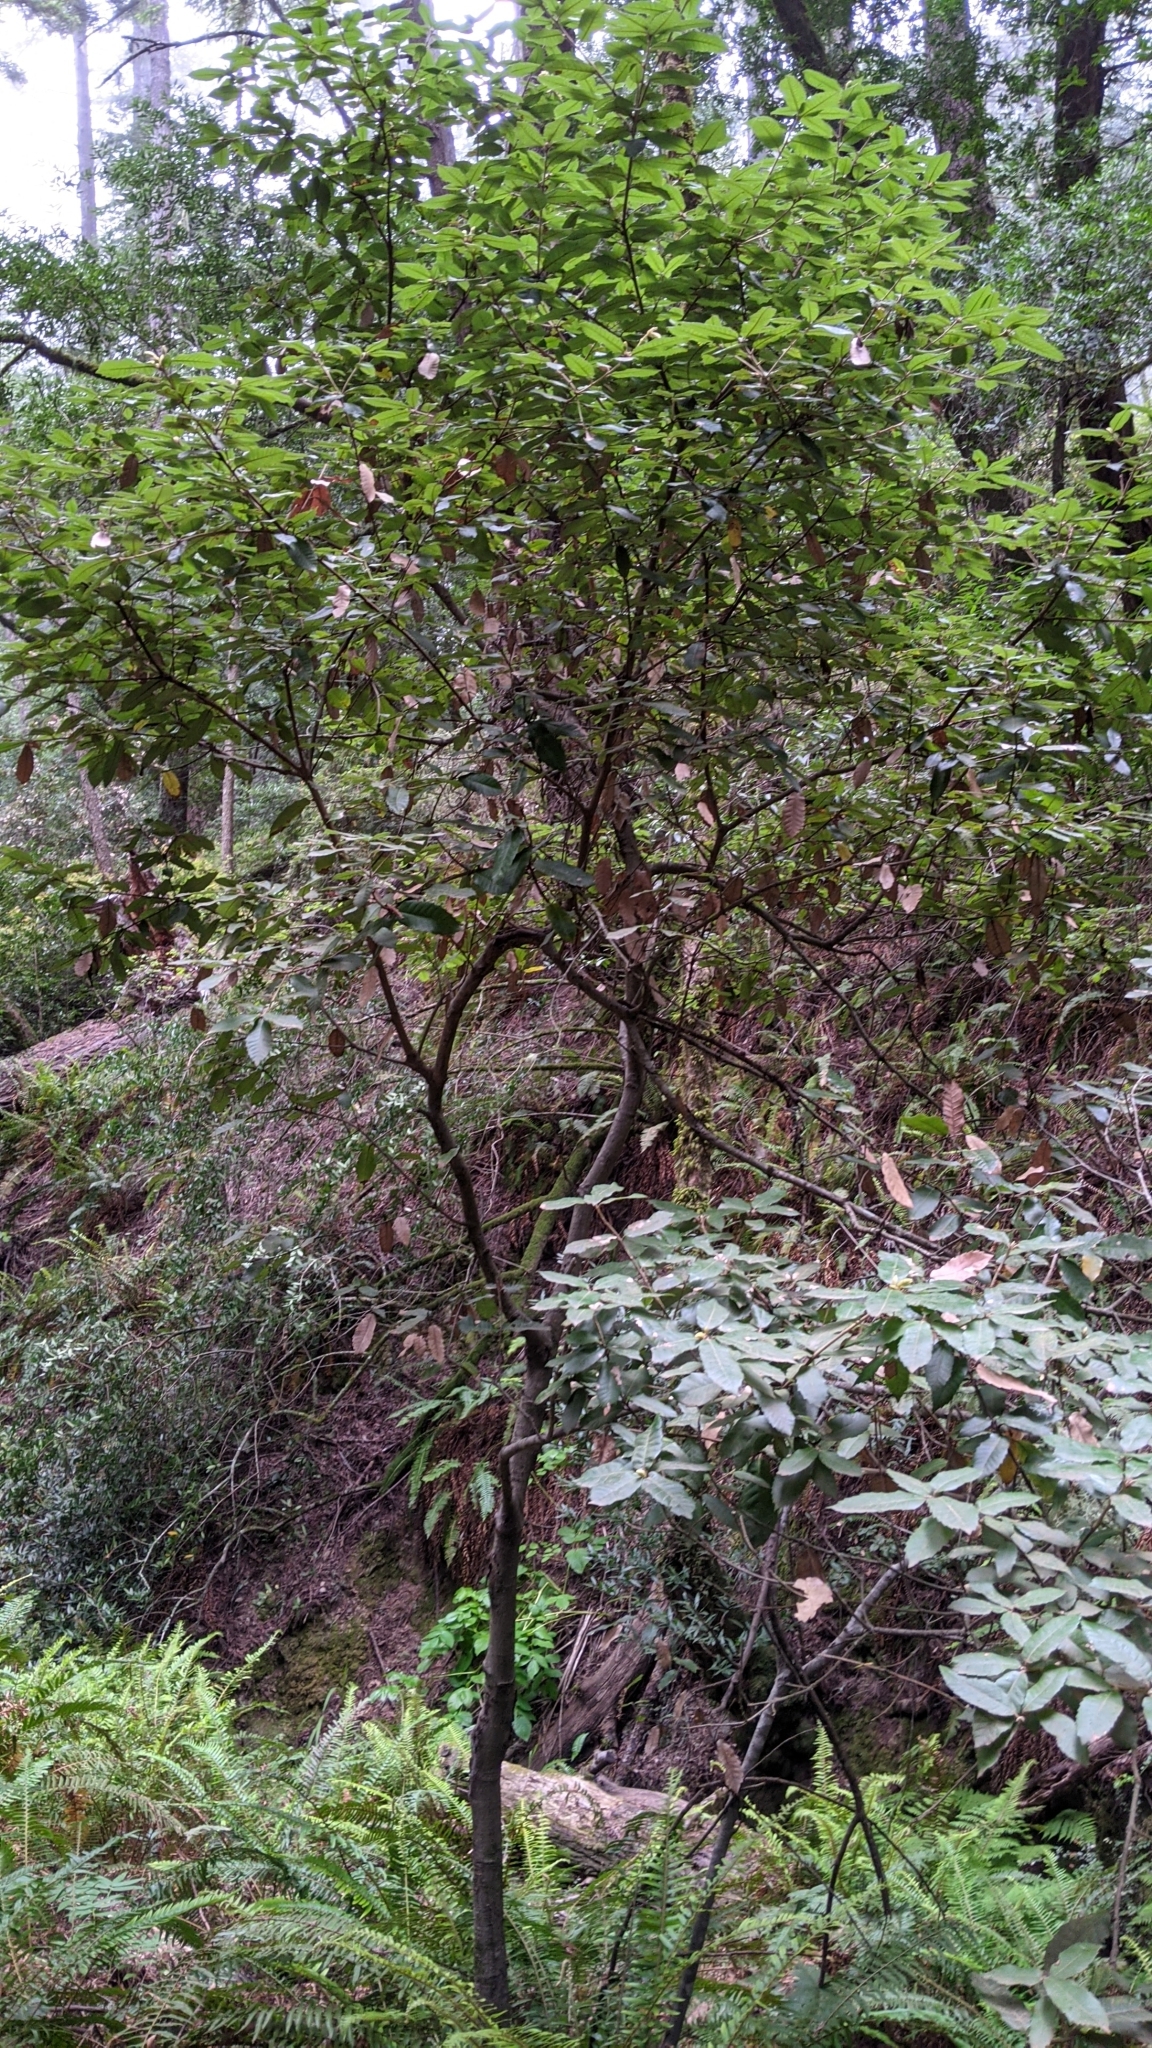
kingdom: Plantae
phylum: Tracheophyta
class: Magnoliopsida
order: Fagales
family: Fagaceae
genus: Notholithocarpus
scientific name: Notholithocarpus densiflorus
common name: Tan bark oak
